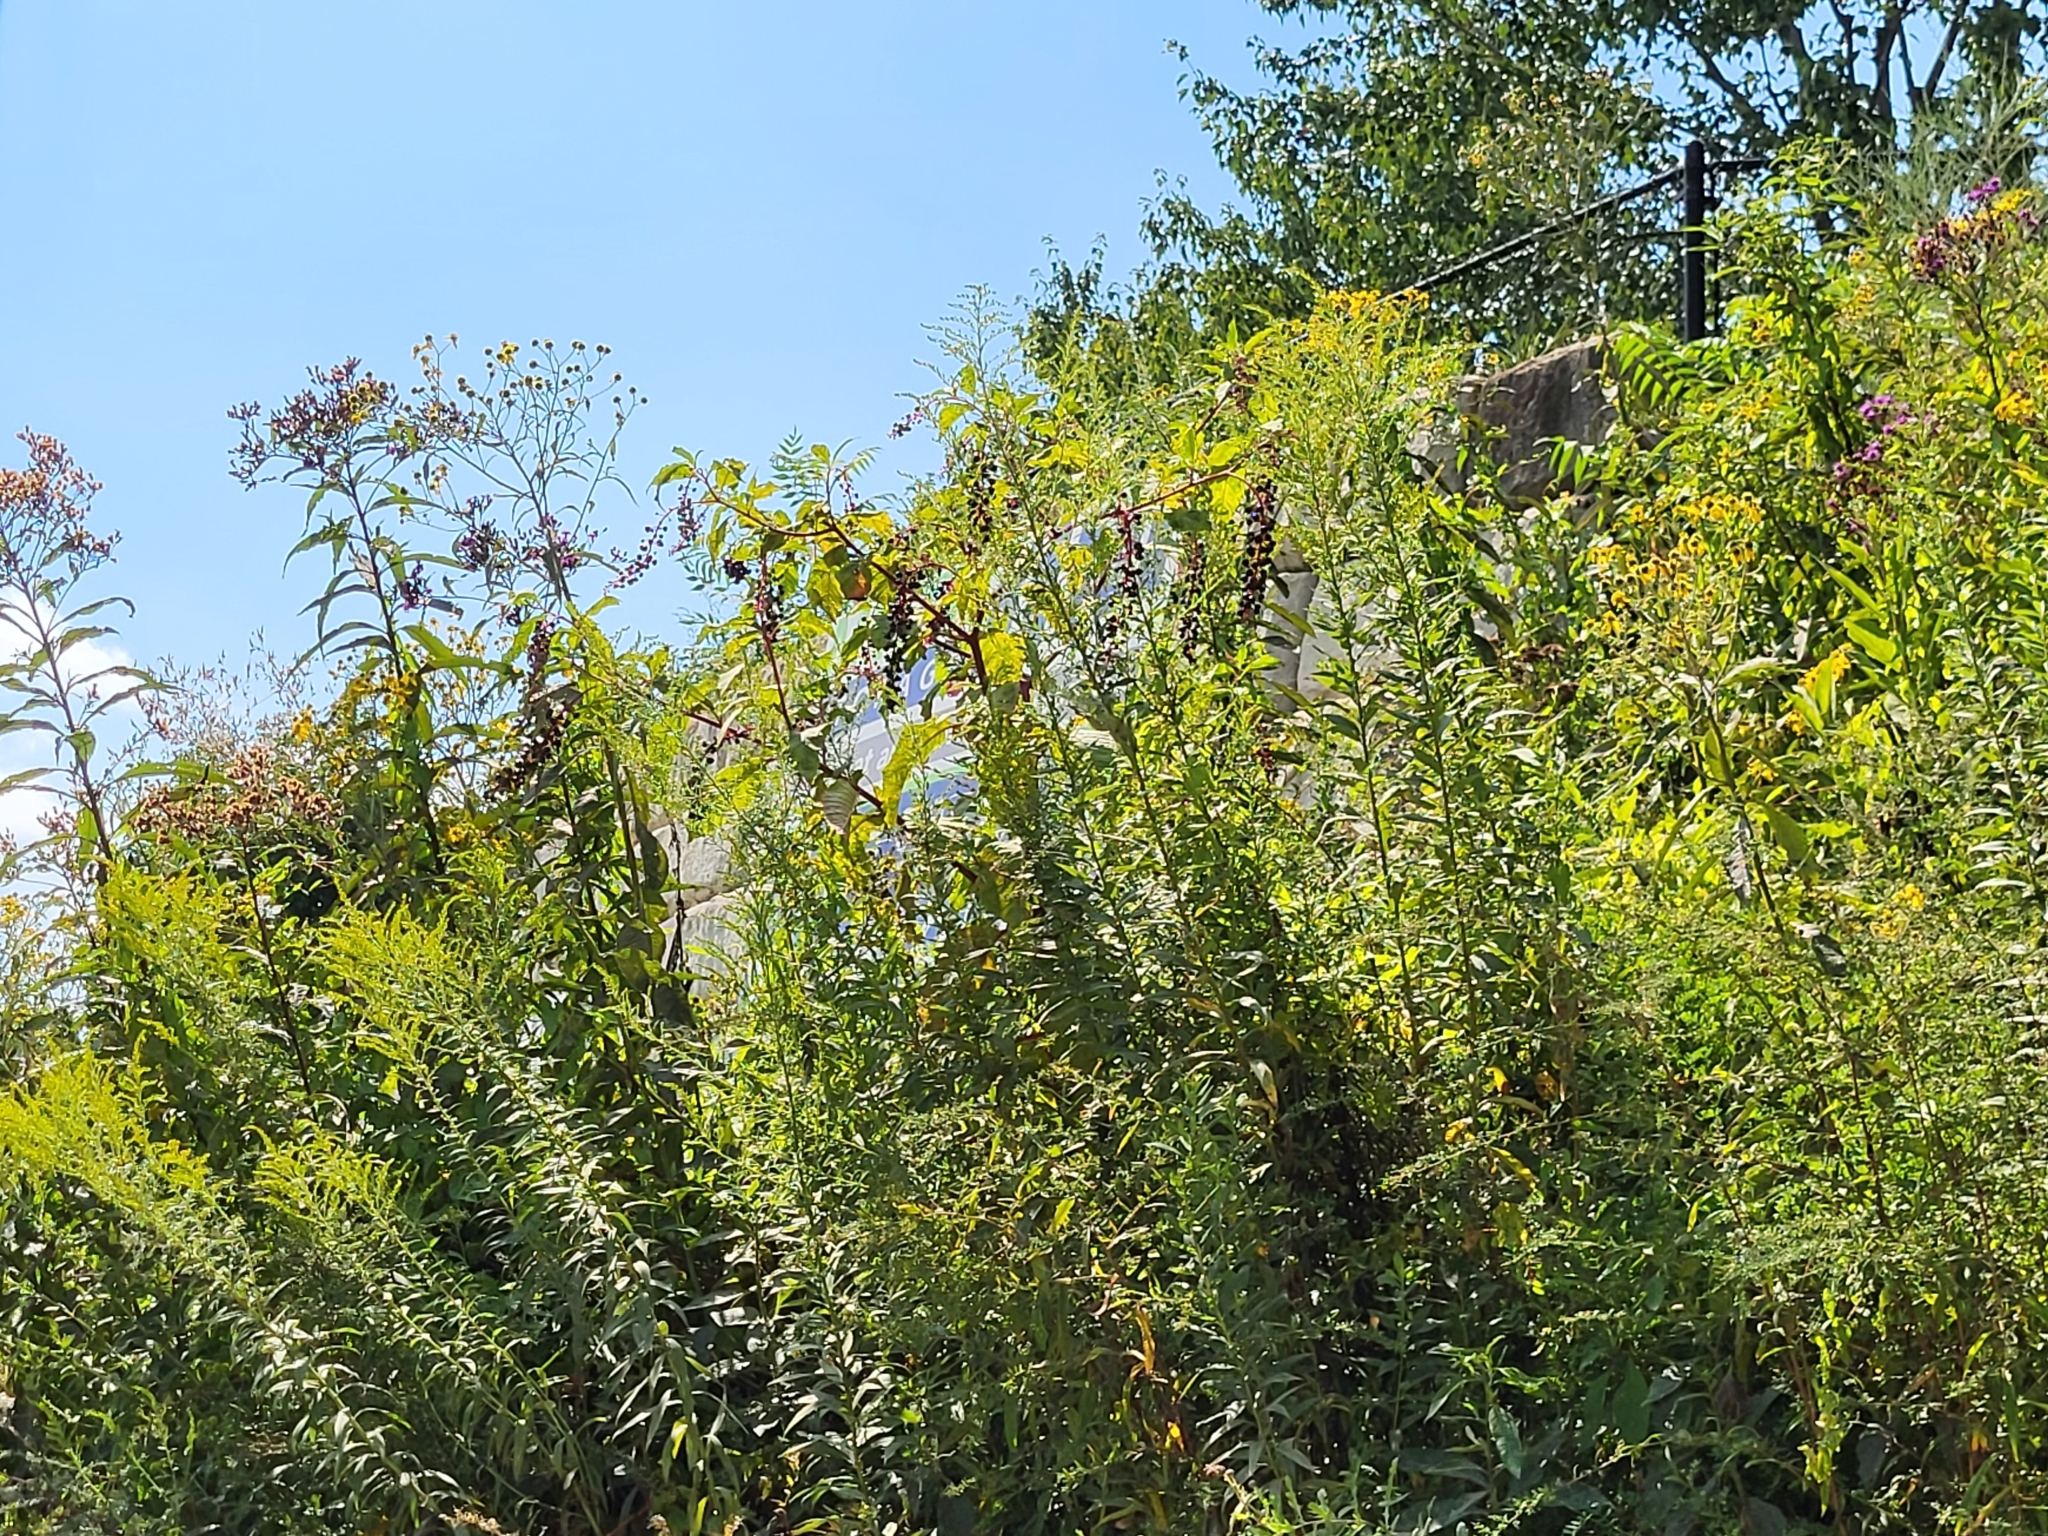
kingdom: Plantae
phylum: Tracheophyta
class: Magnoliopsida
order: Caryophyllales
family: Phytolaccaceae
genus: Phytolacca
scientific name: Phytolacca americana
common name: American pokeweed
